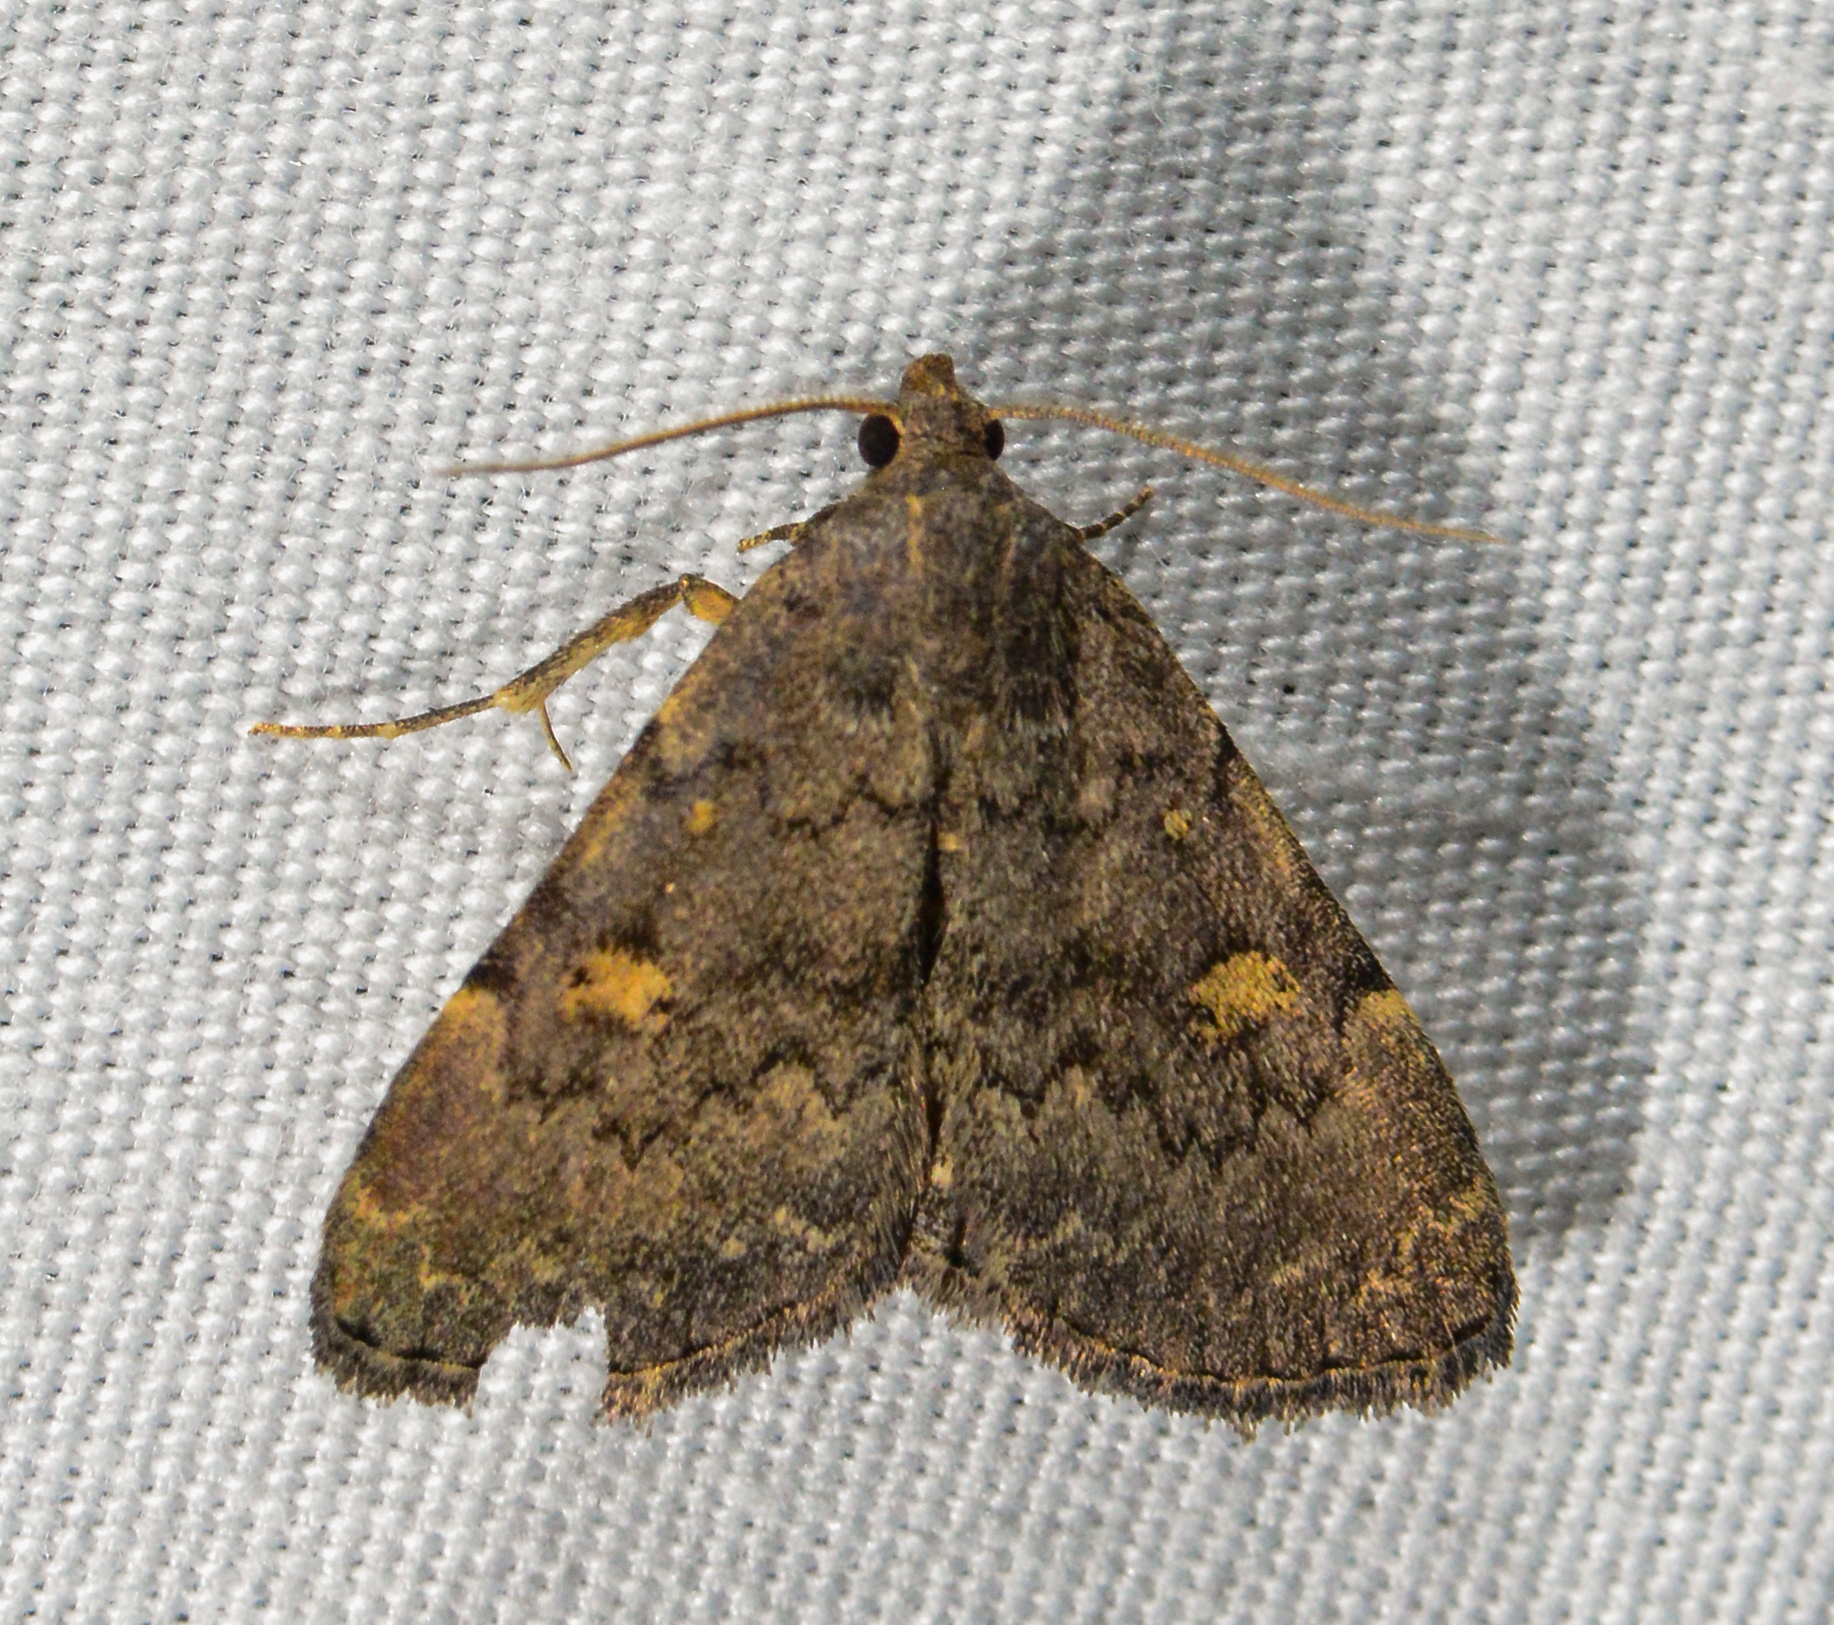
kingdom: Animalia
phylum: Arthropoda
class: Insecta
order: Lepidoptera
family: Erebidae
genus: Idia
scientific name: Idia aemula
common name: Common idia moth
